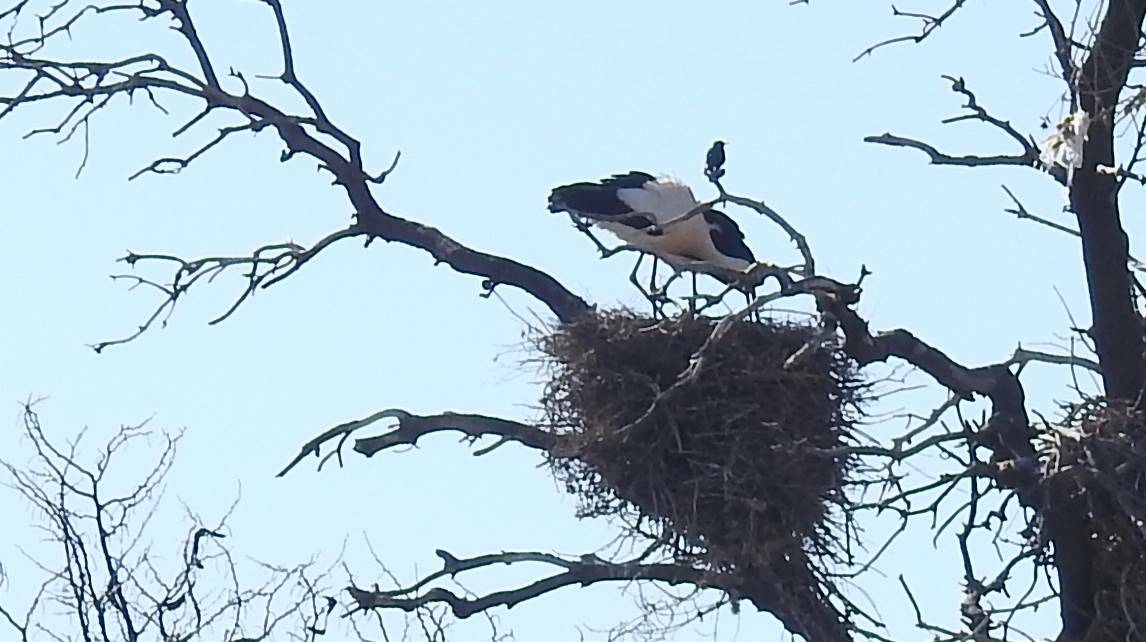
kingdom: Animalia
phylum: Chordata
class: Aves
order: Ciconiiformes
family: Ciconiidae
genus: Ciconia
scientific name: Ciconia ciconia
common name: White stork
